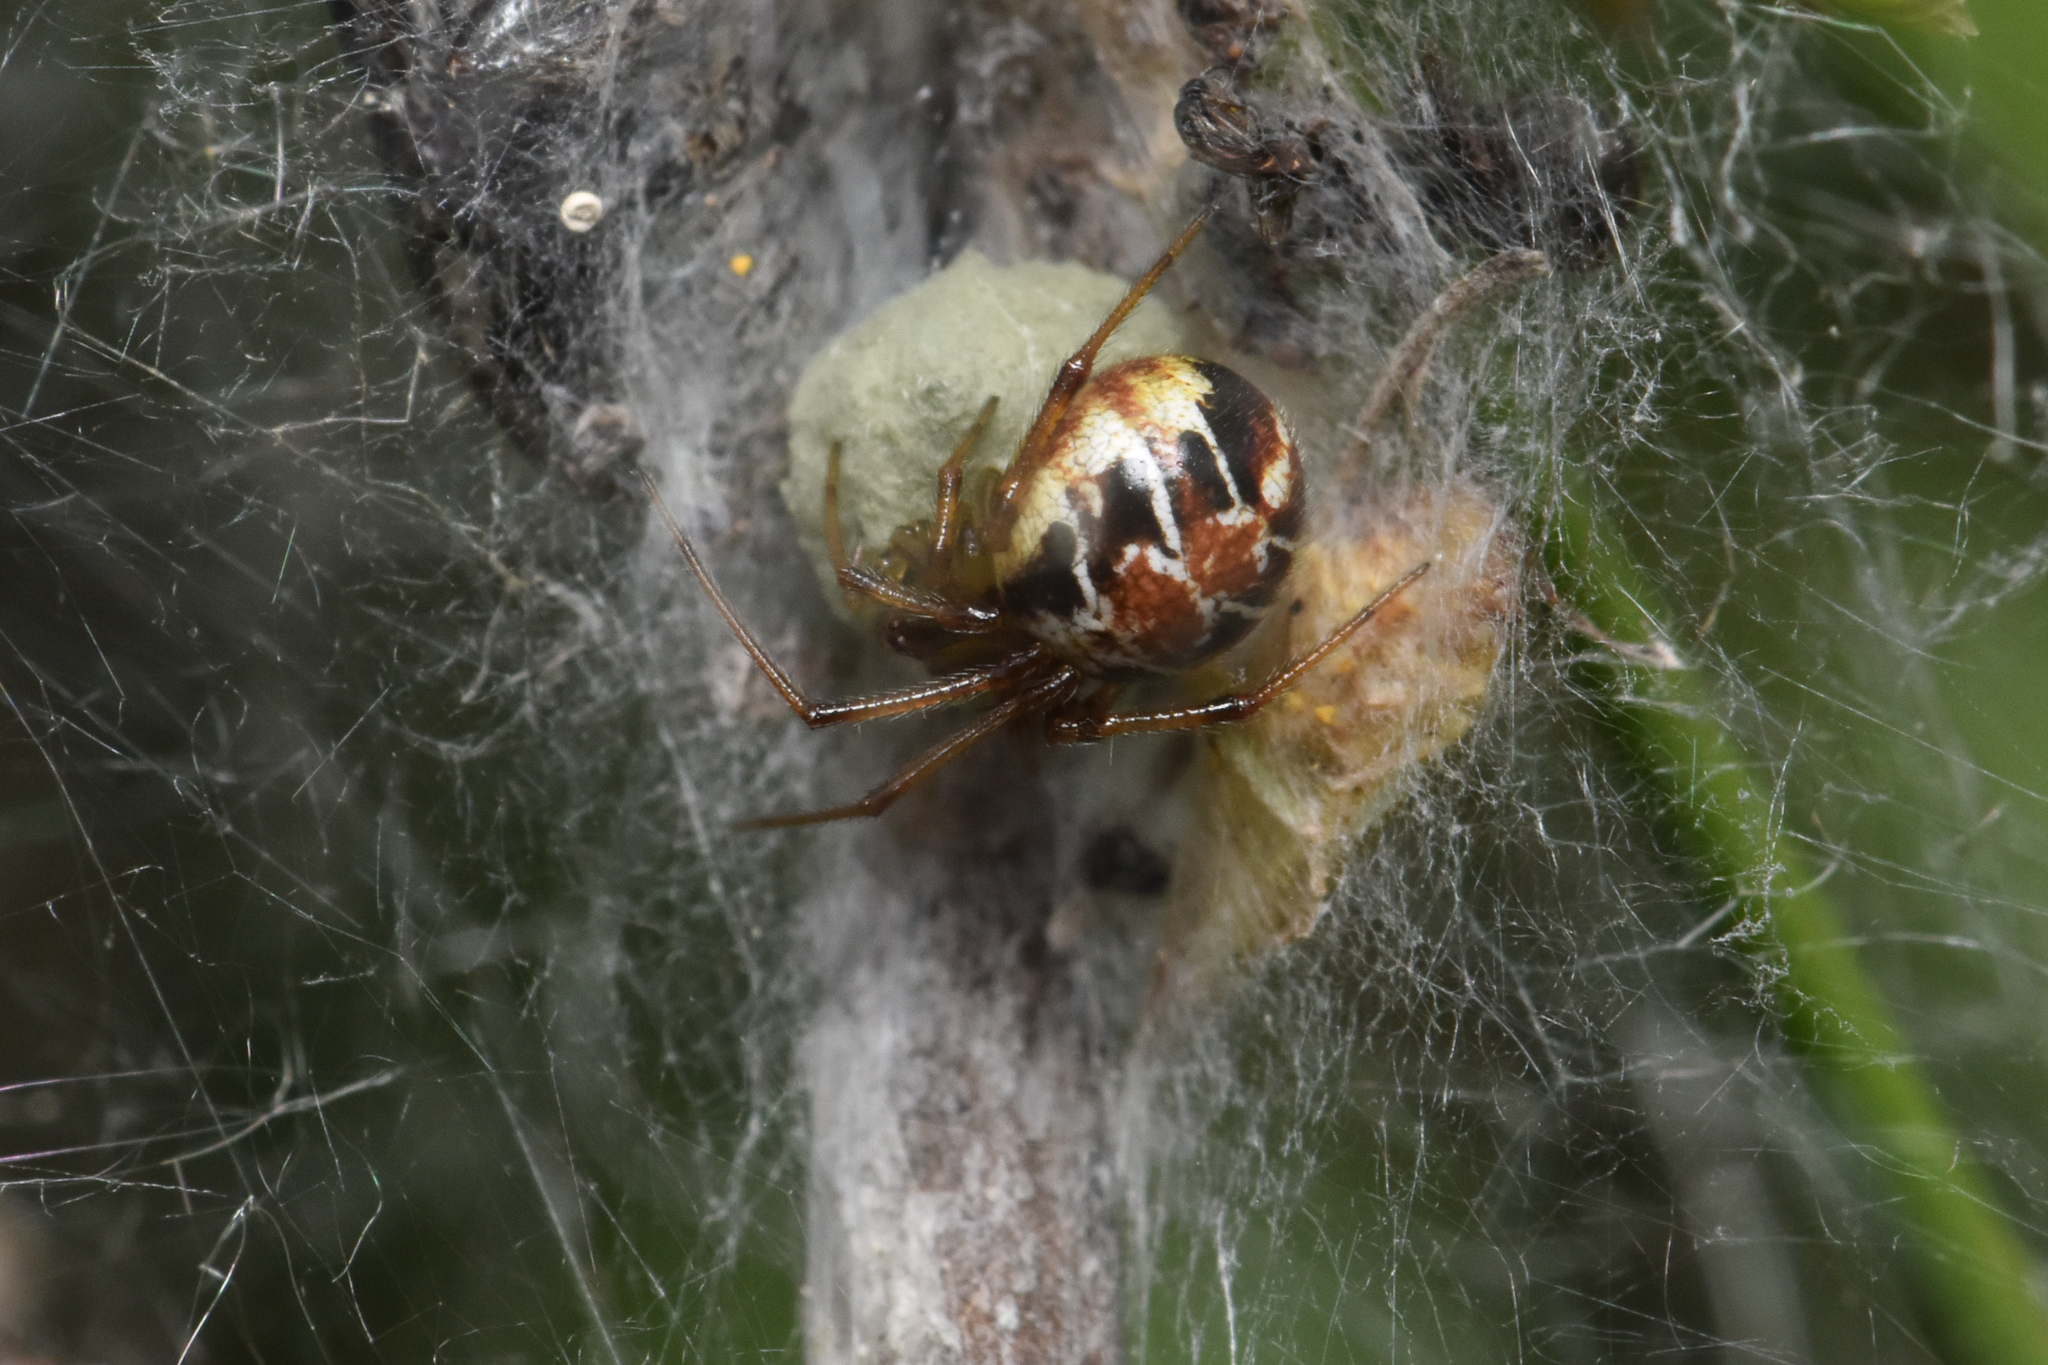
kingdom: Animalia
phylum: Arthropoda
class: Arachnida
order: Araneae
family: Theridiidae
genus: Phylloneta
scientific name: Phylloneta impressa
